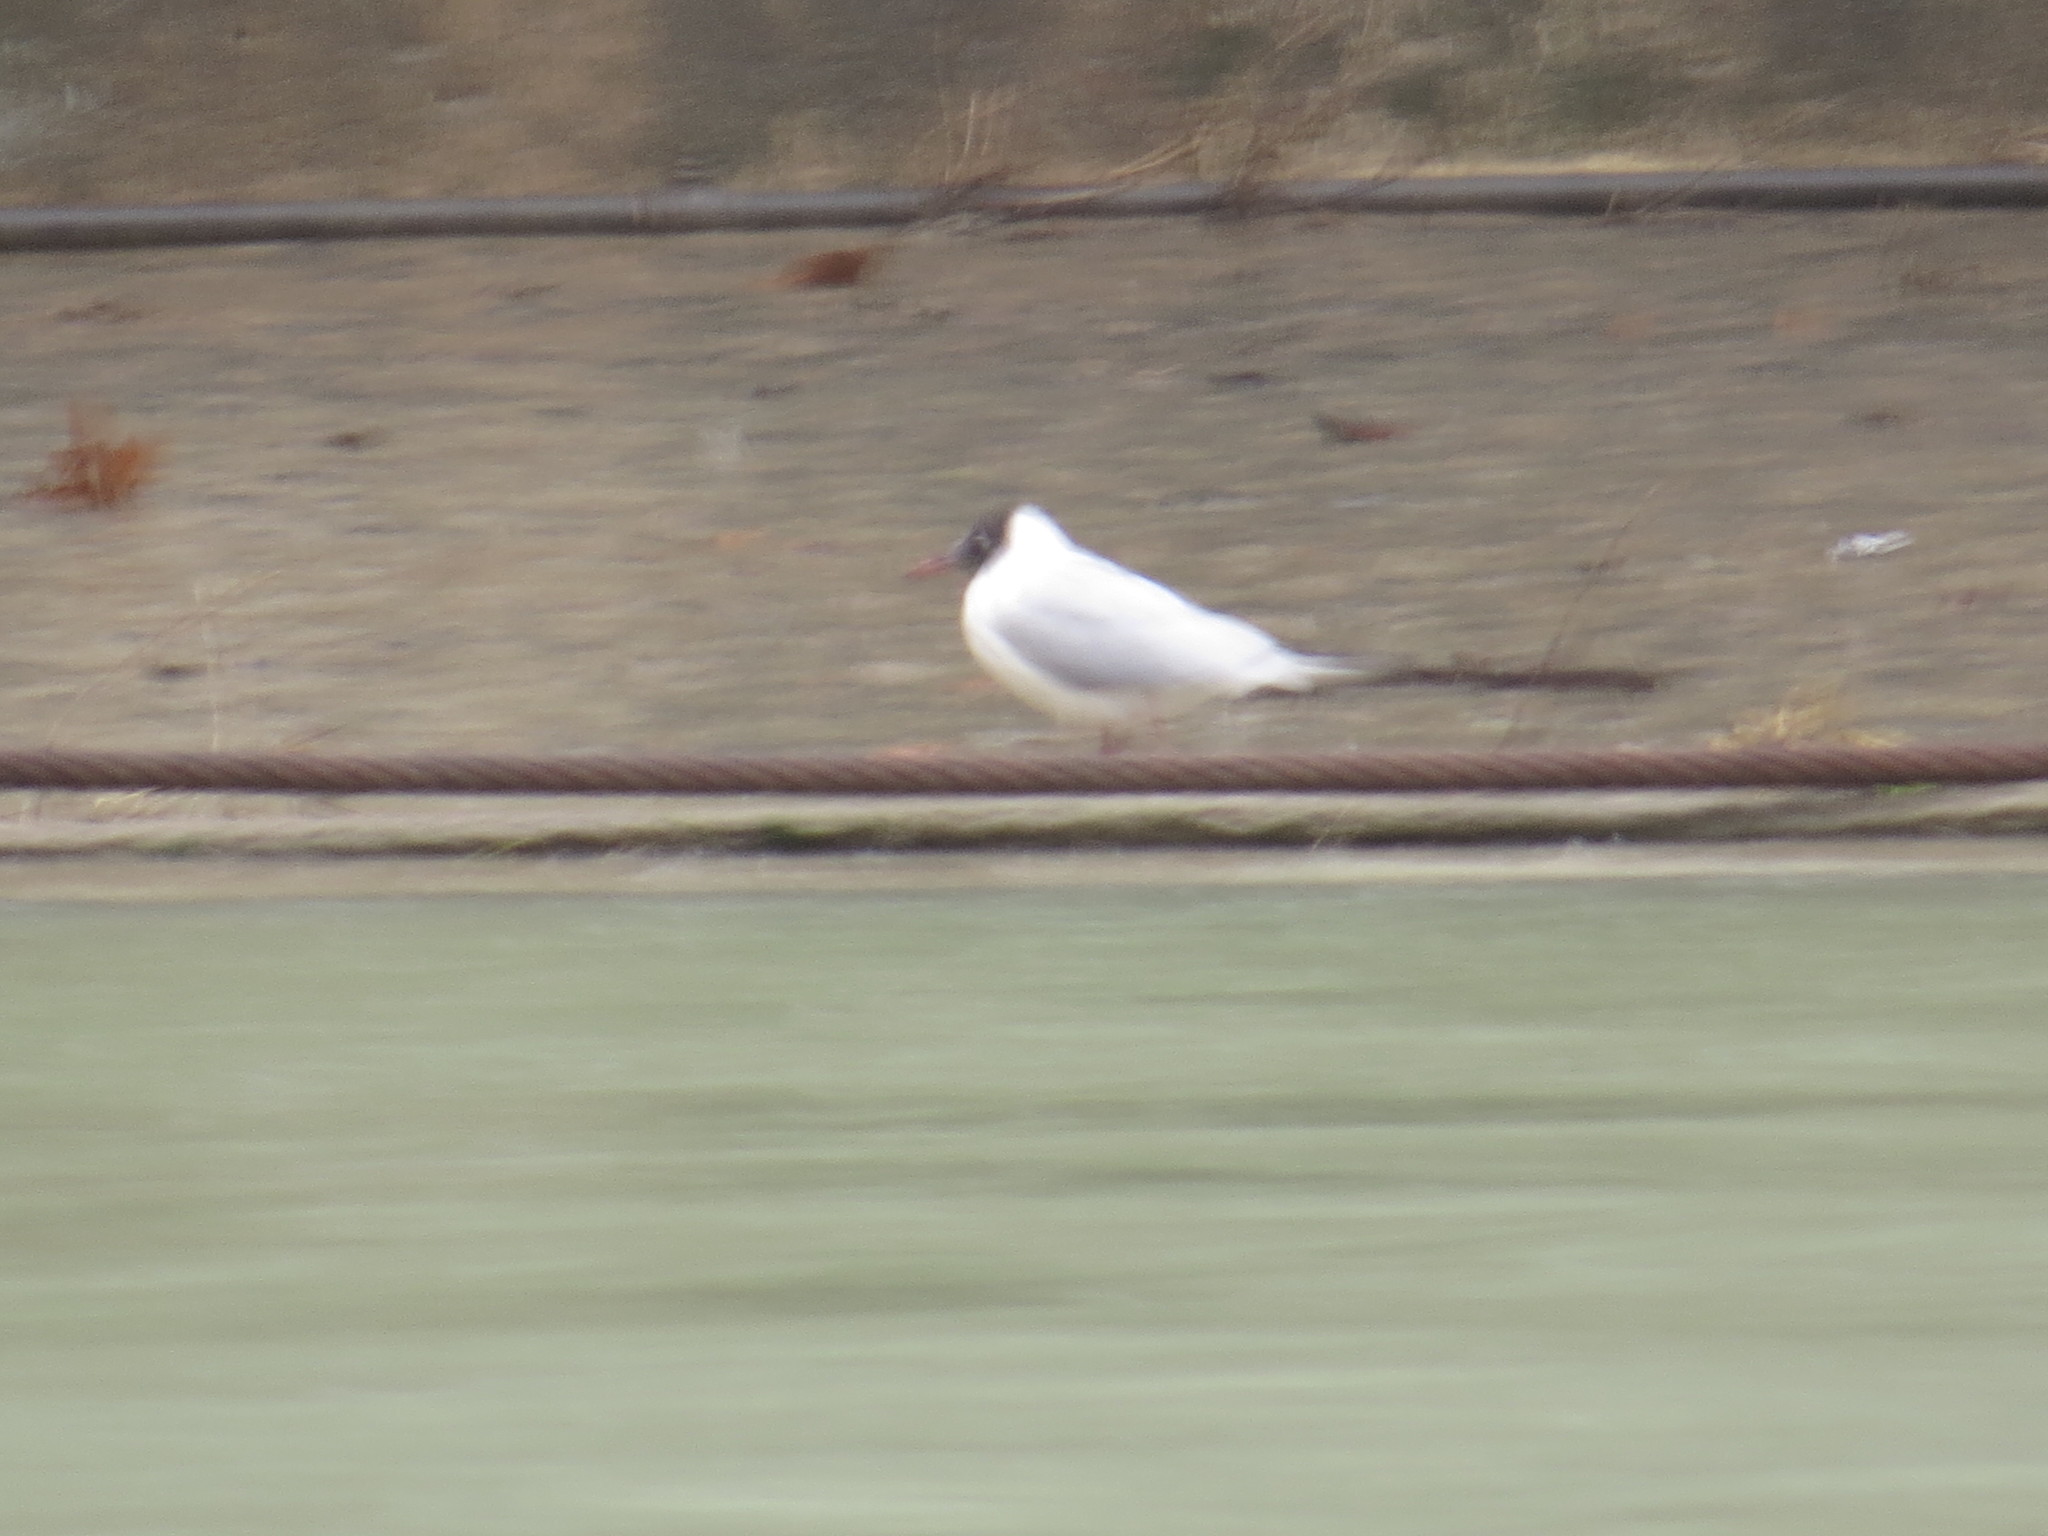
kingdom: Animalia
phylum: Chordata
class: Aves
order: Charadriiformes
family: Laridae
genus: Chroicocephalus
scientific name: Chroicocephalus ridibundus
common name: Black-headed gull
